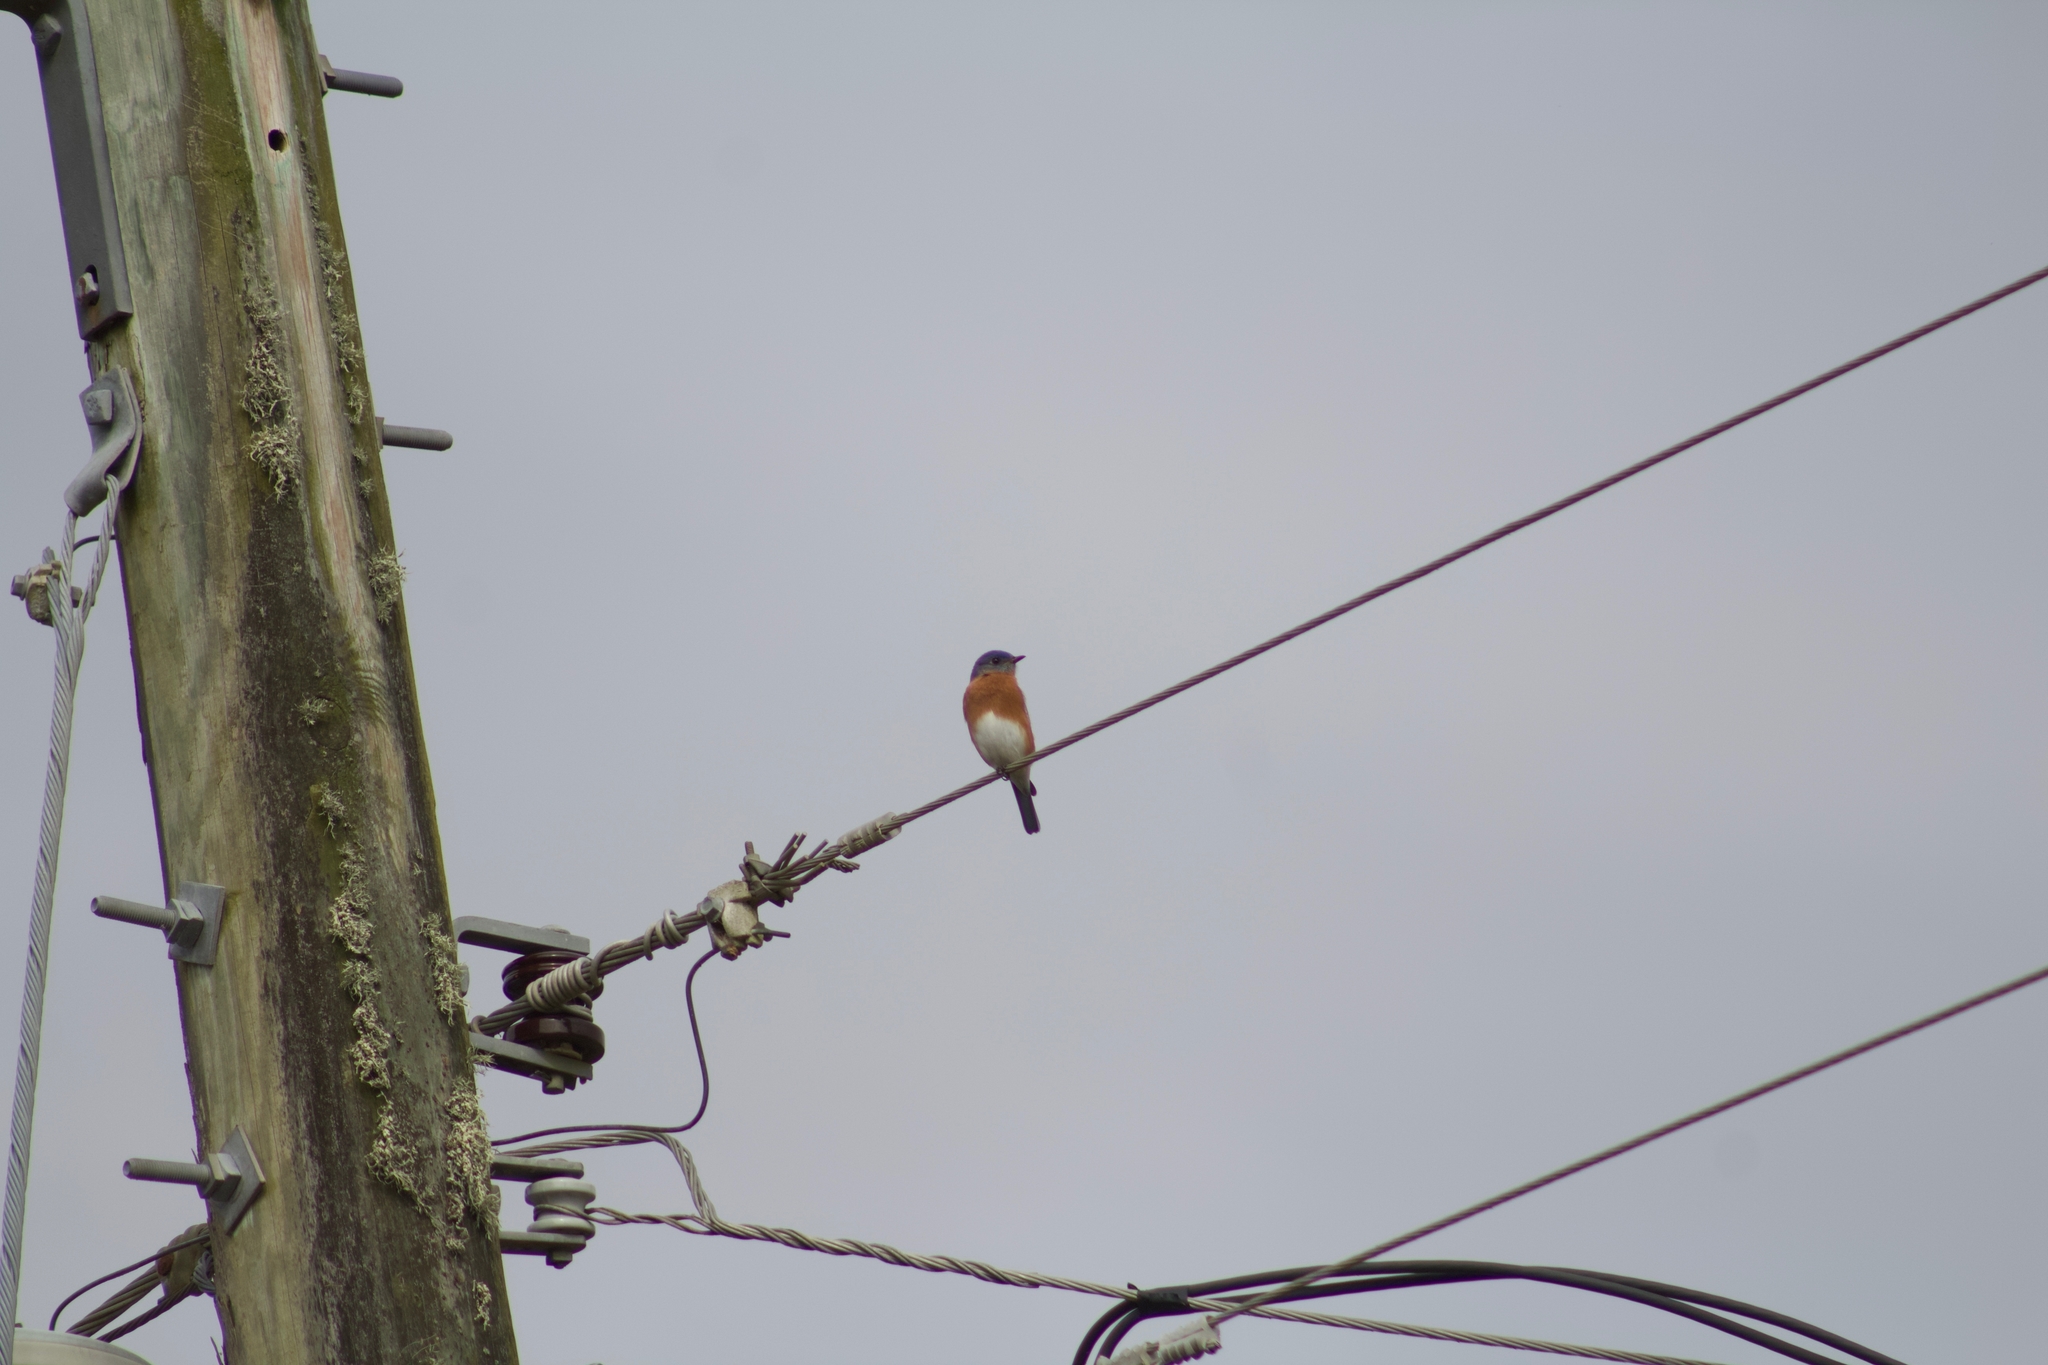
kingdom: Animalia
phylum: Chordata
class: Aves
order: Passeriformes
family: Turdidae
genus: Sialia
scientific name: Sialia sialis
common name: Eastern bluebird
